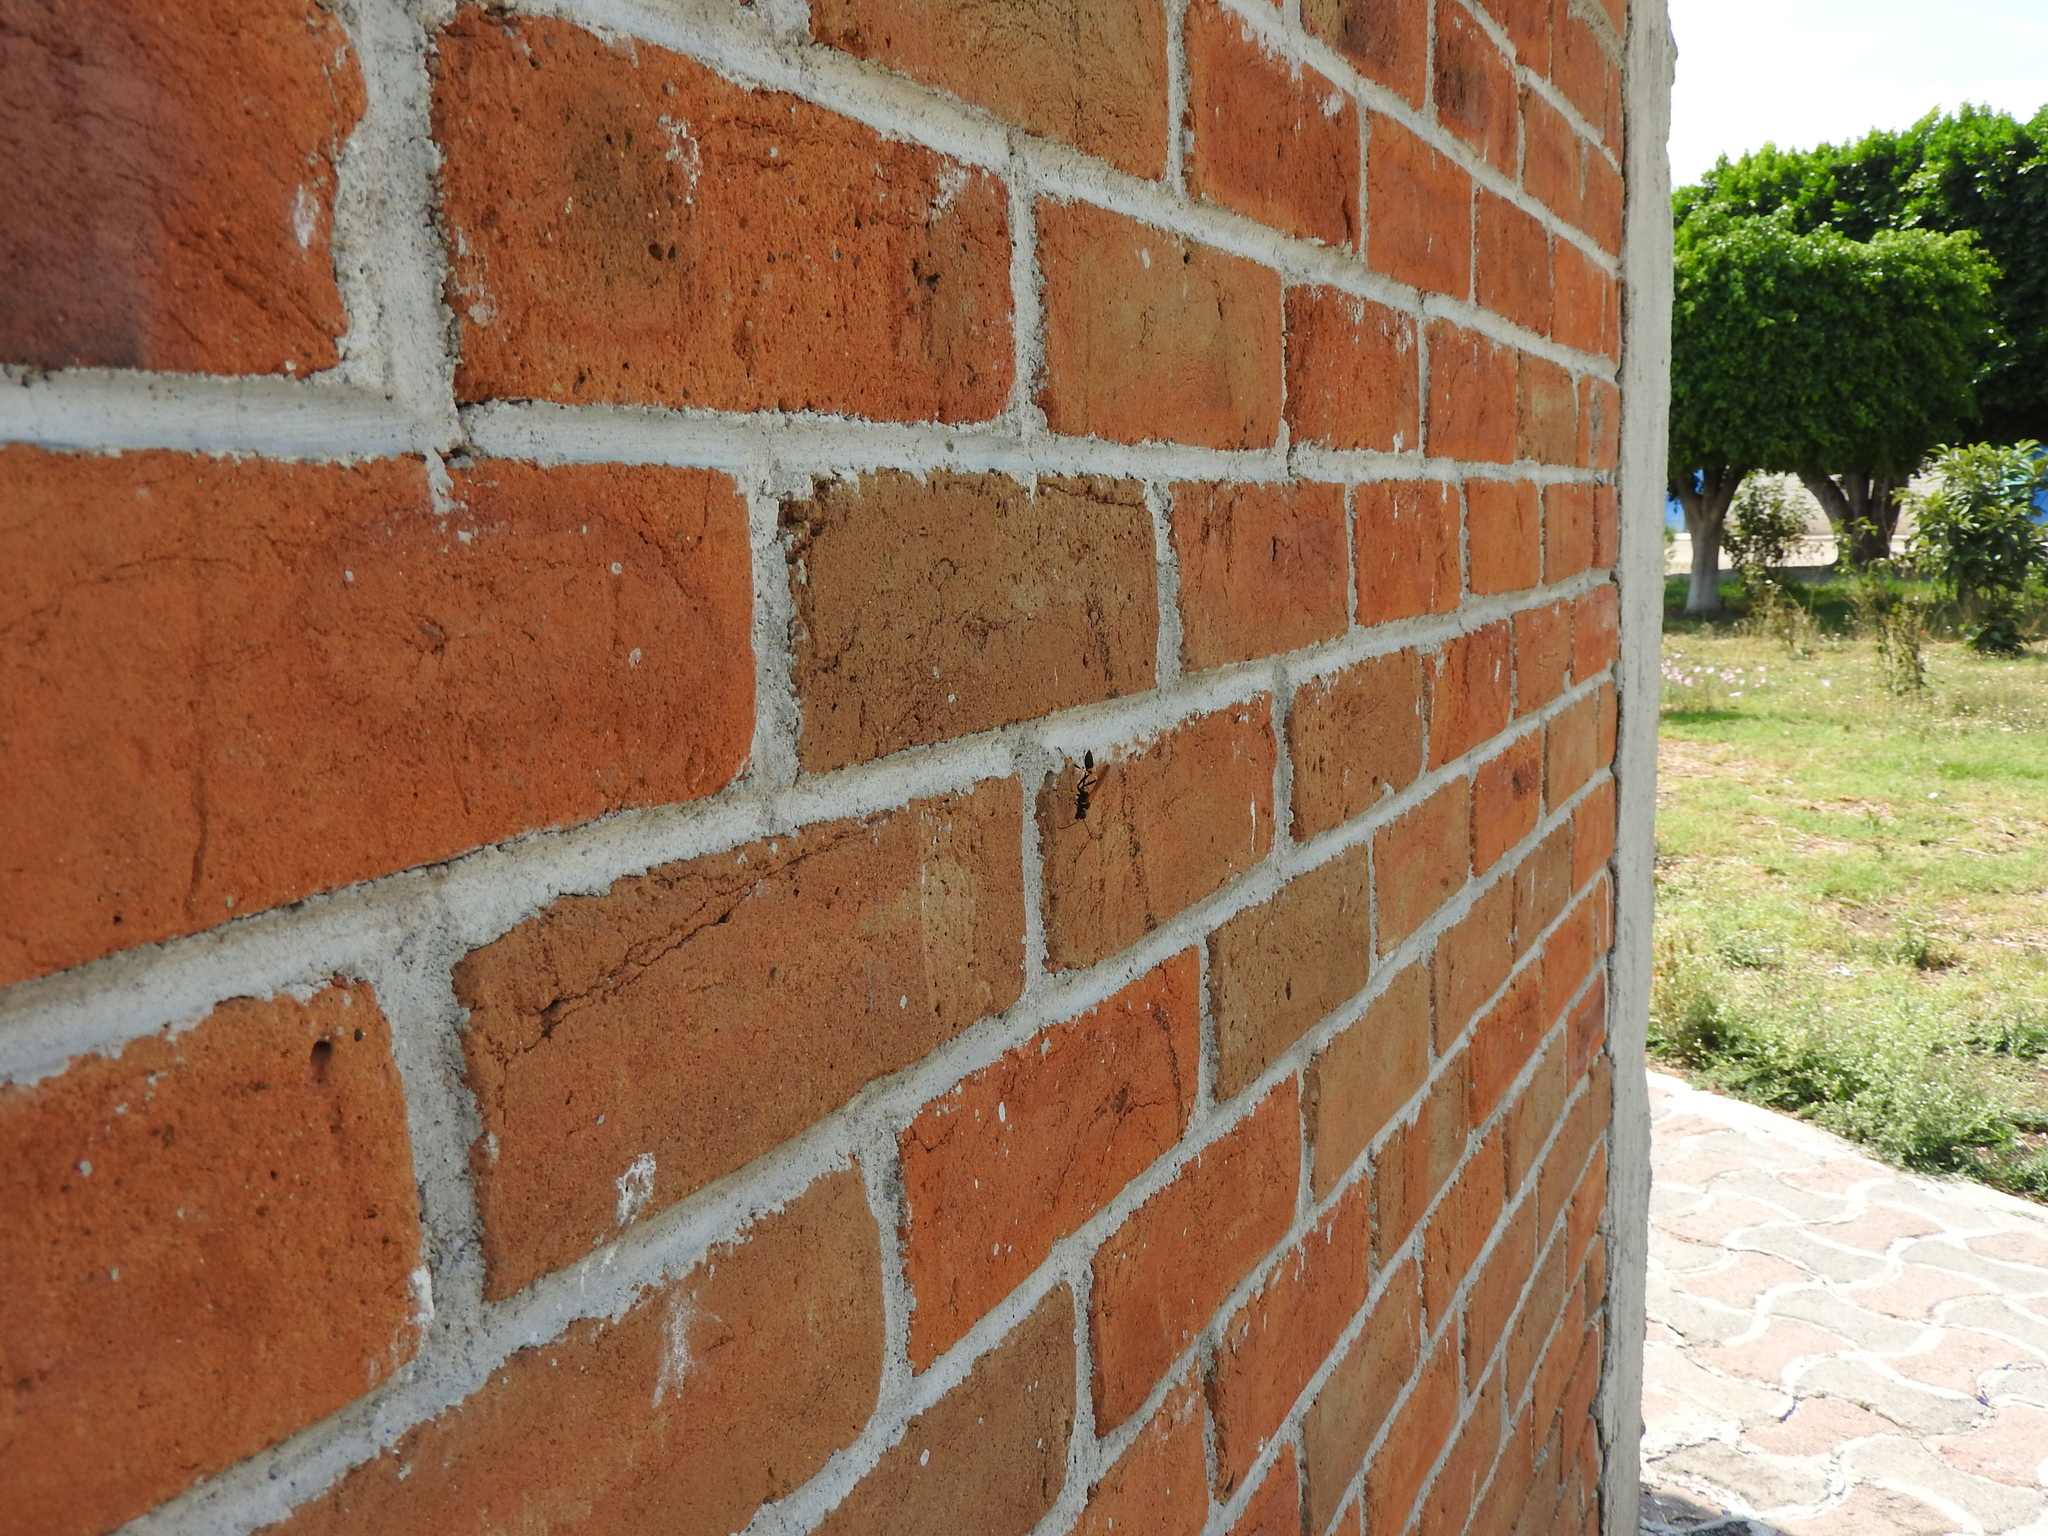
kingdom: Animalia
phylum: Arthropoda
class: Insecta
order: Hymenoptera
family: Sphecidae
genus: Sceliphron
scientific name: Sceliphron caementarium
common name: Mud dauber
